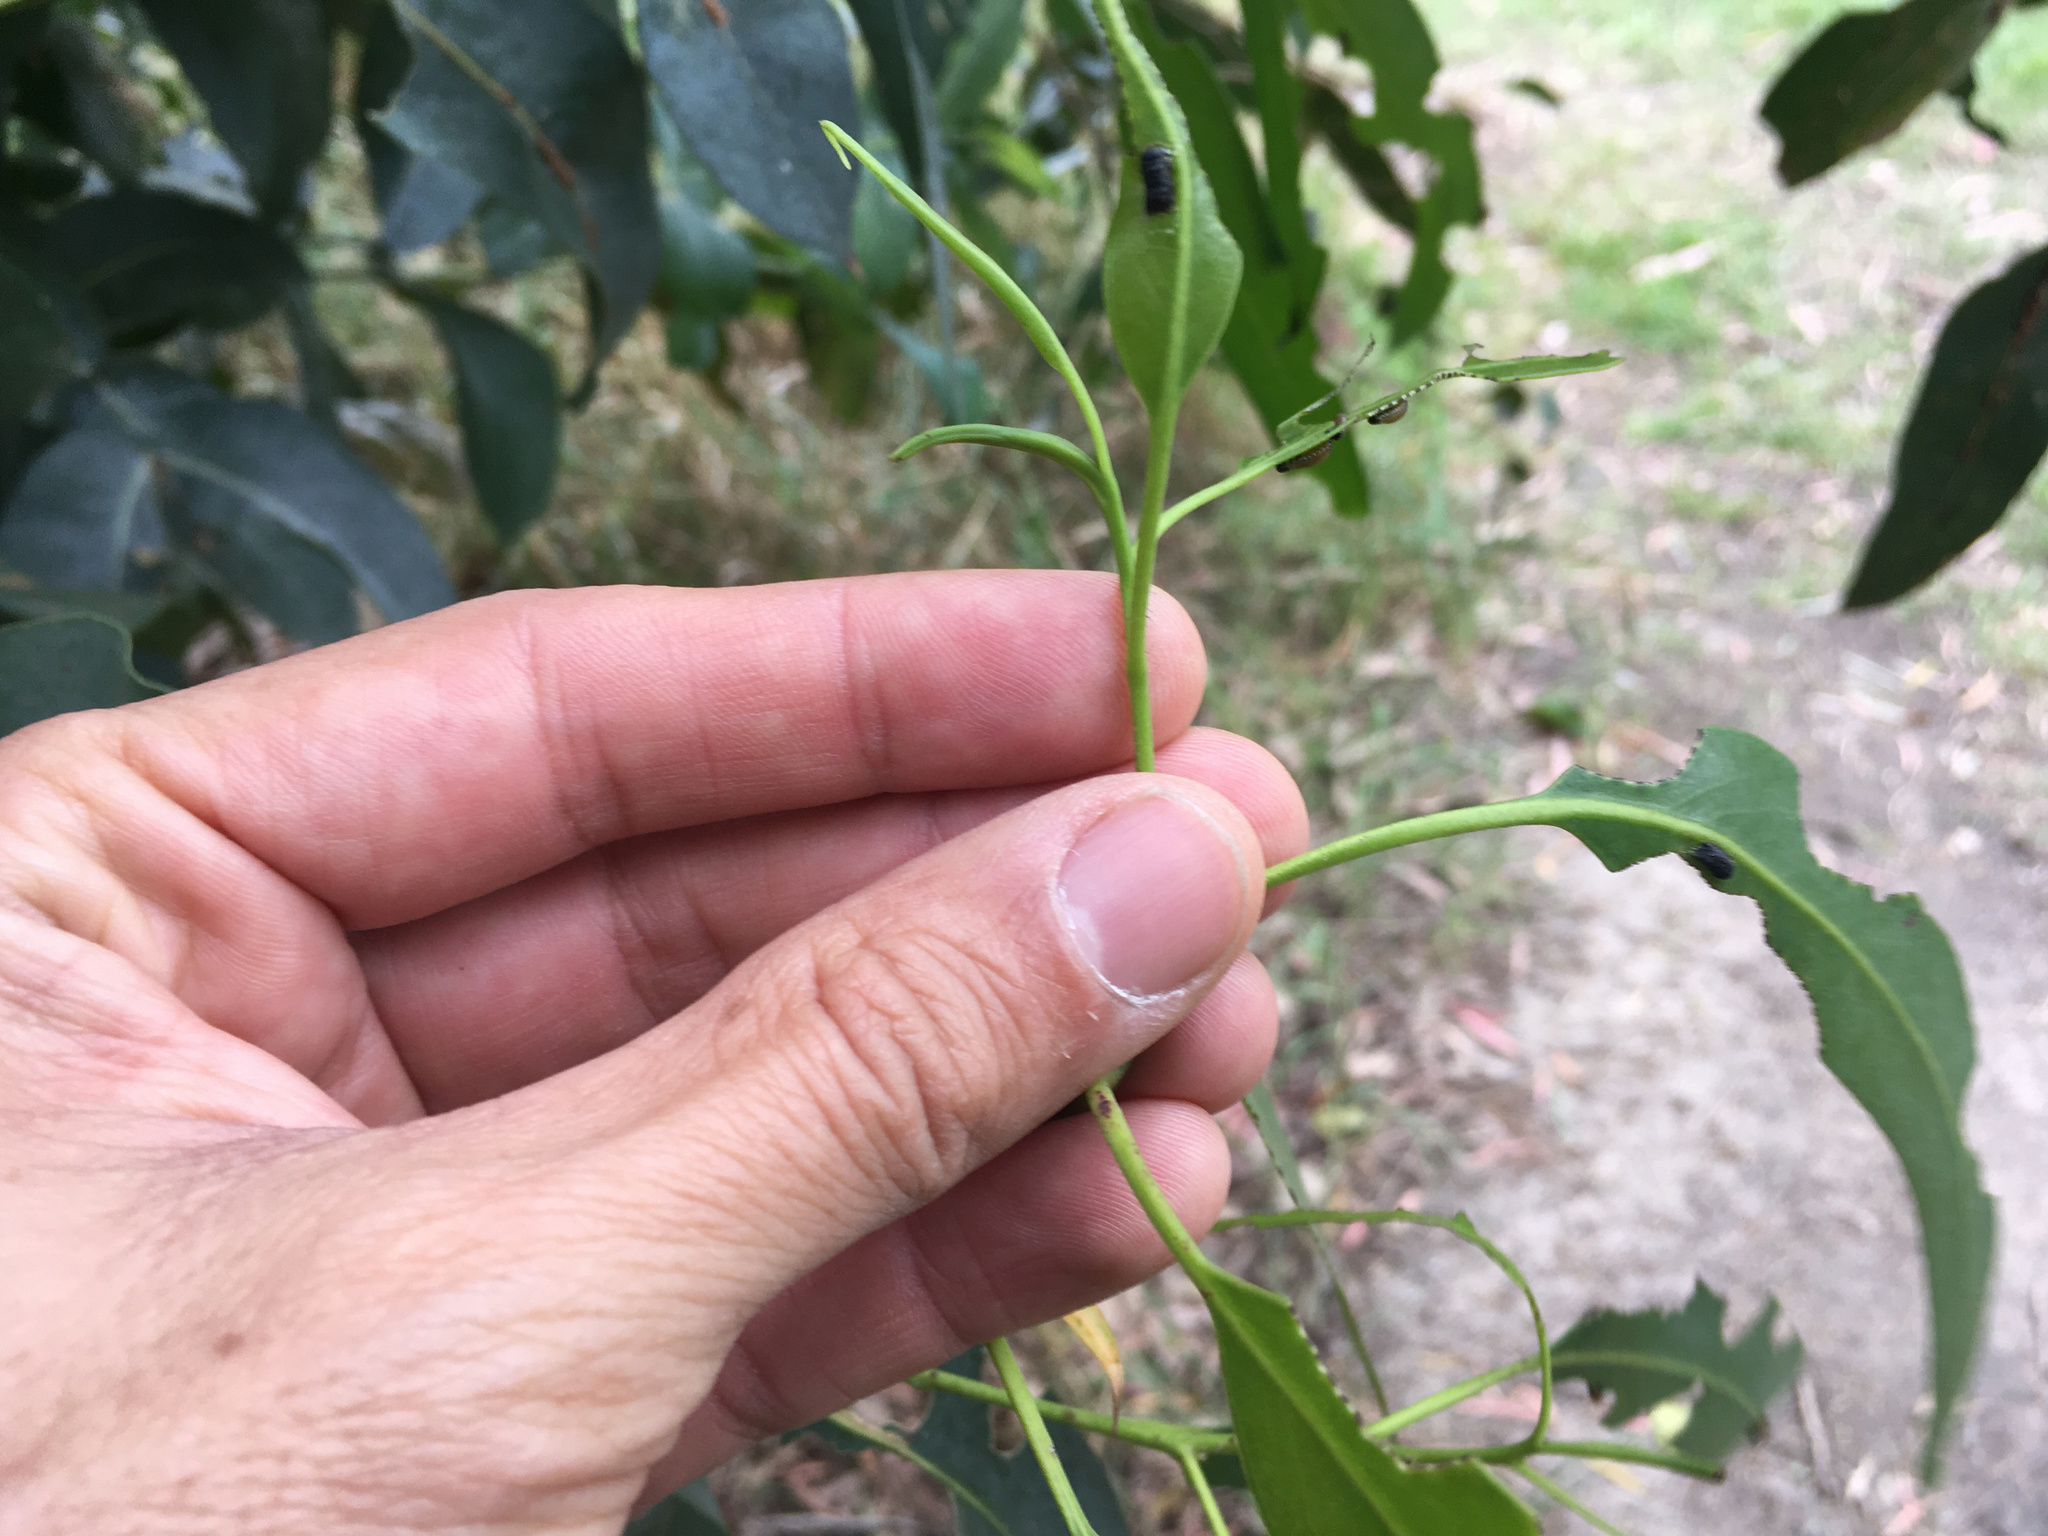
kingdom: Animalia
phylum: Arthropoda
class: Insecta
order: Coleoptera
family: Chrysomelidae
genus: Paropsis
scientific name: Paropsis charybdis
